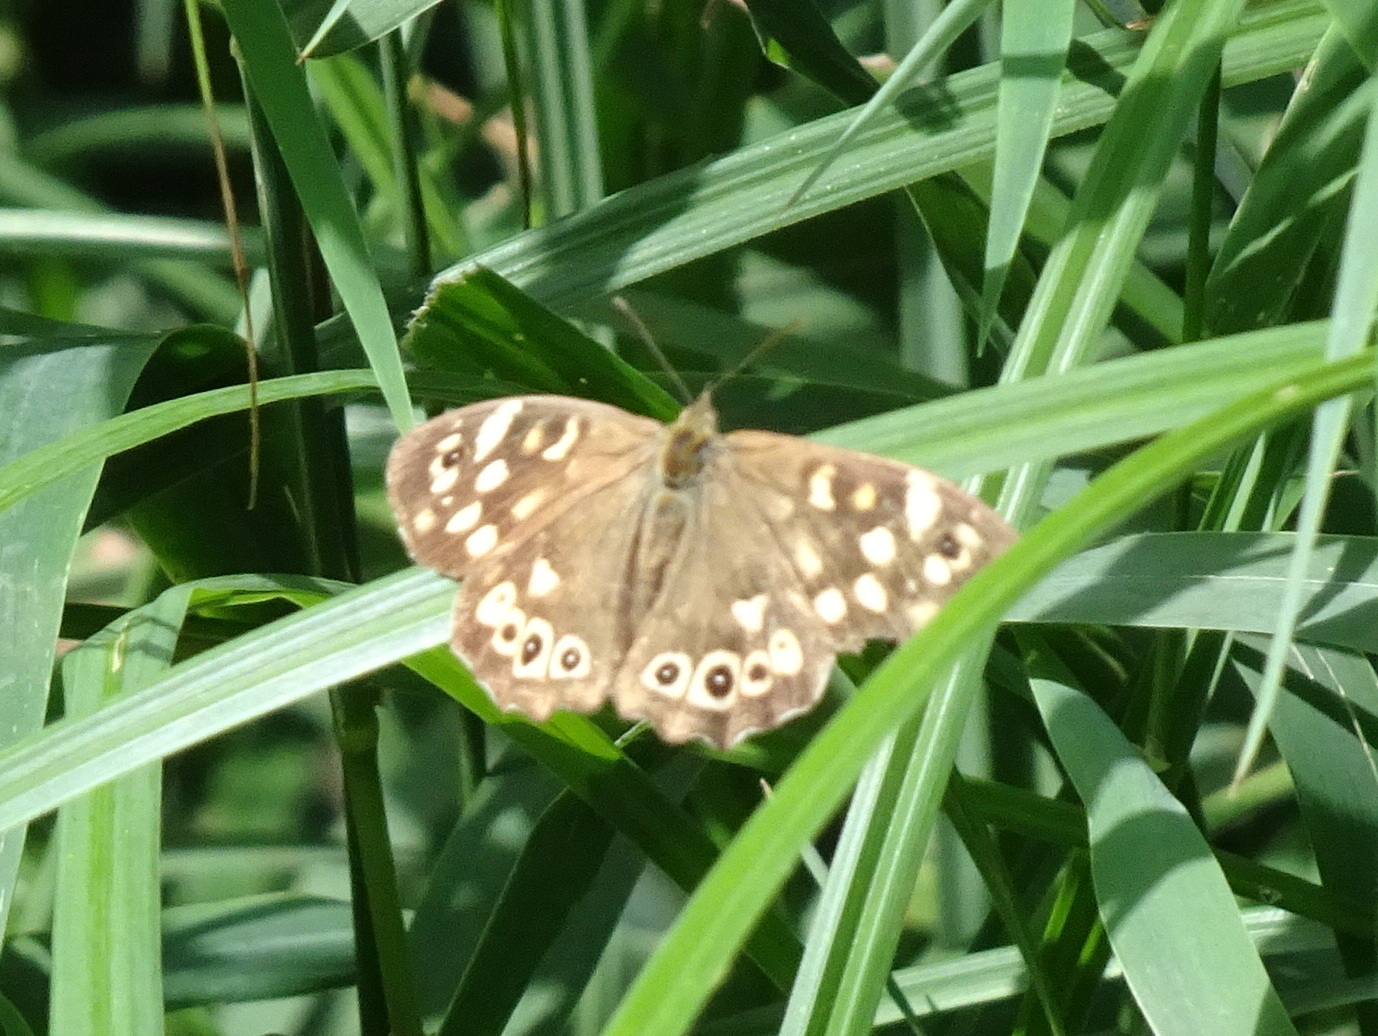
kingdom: Animalia
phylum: Arthropoda
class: Insecta
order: Lepidoptera
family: Nymphalidae
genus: Pararge
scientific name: Pararge aegeria
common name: Speckled wood
